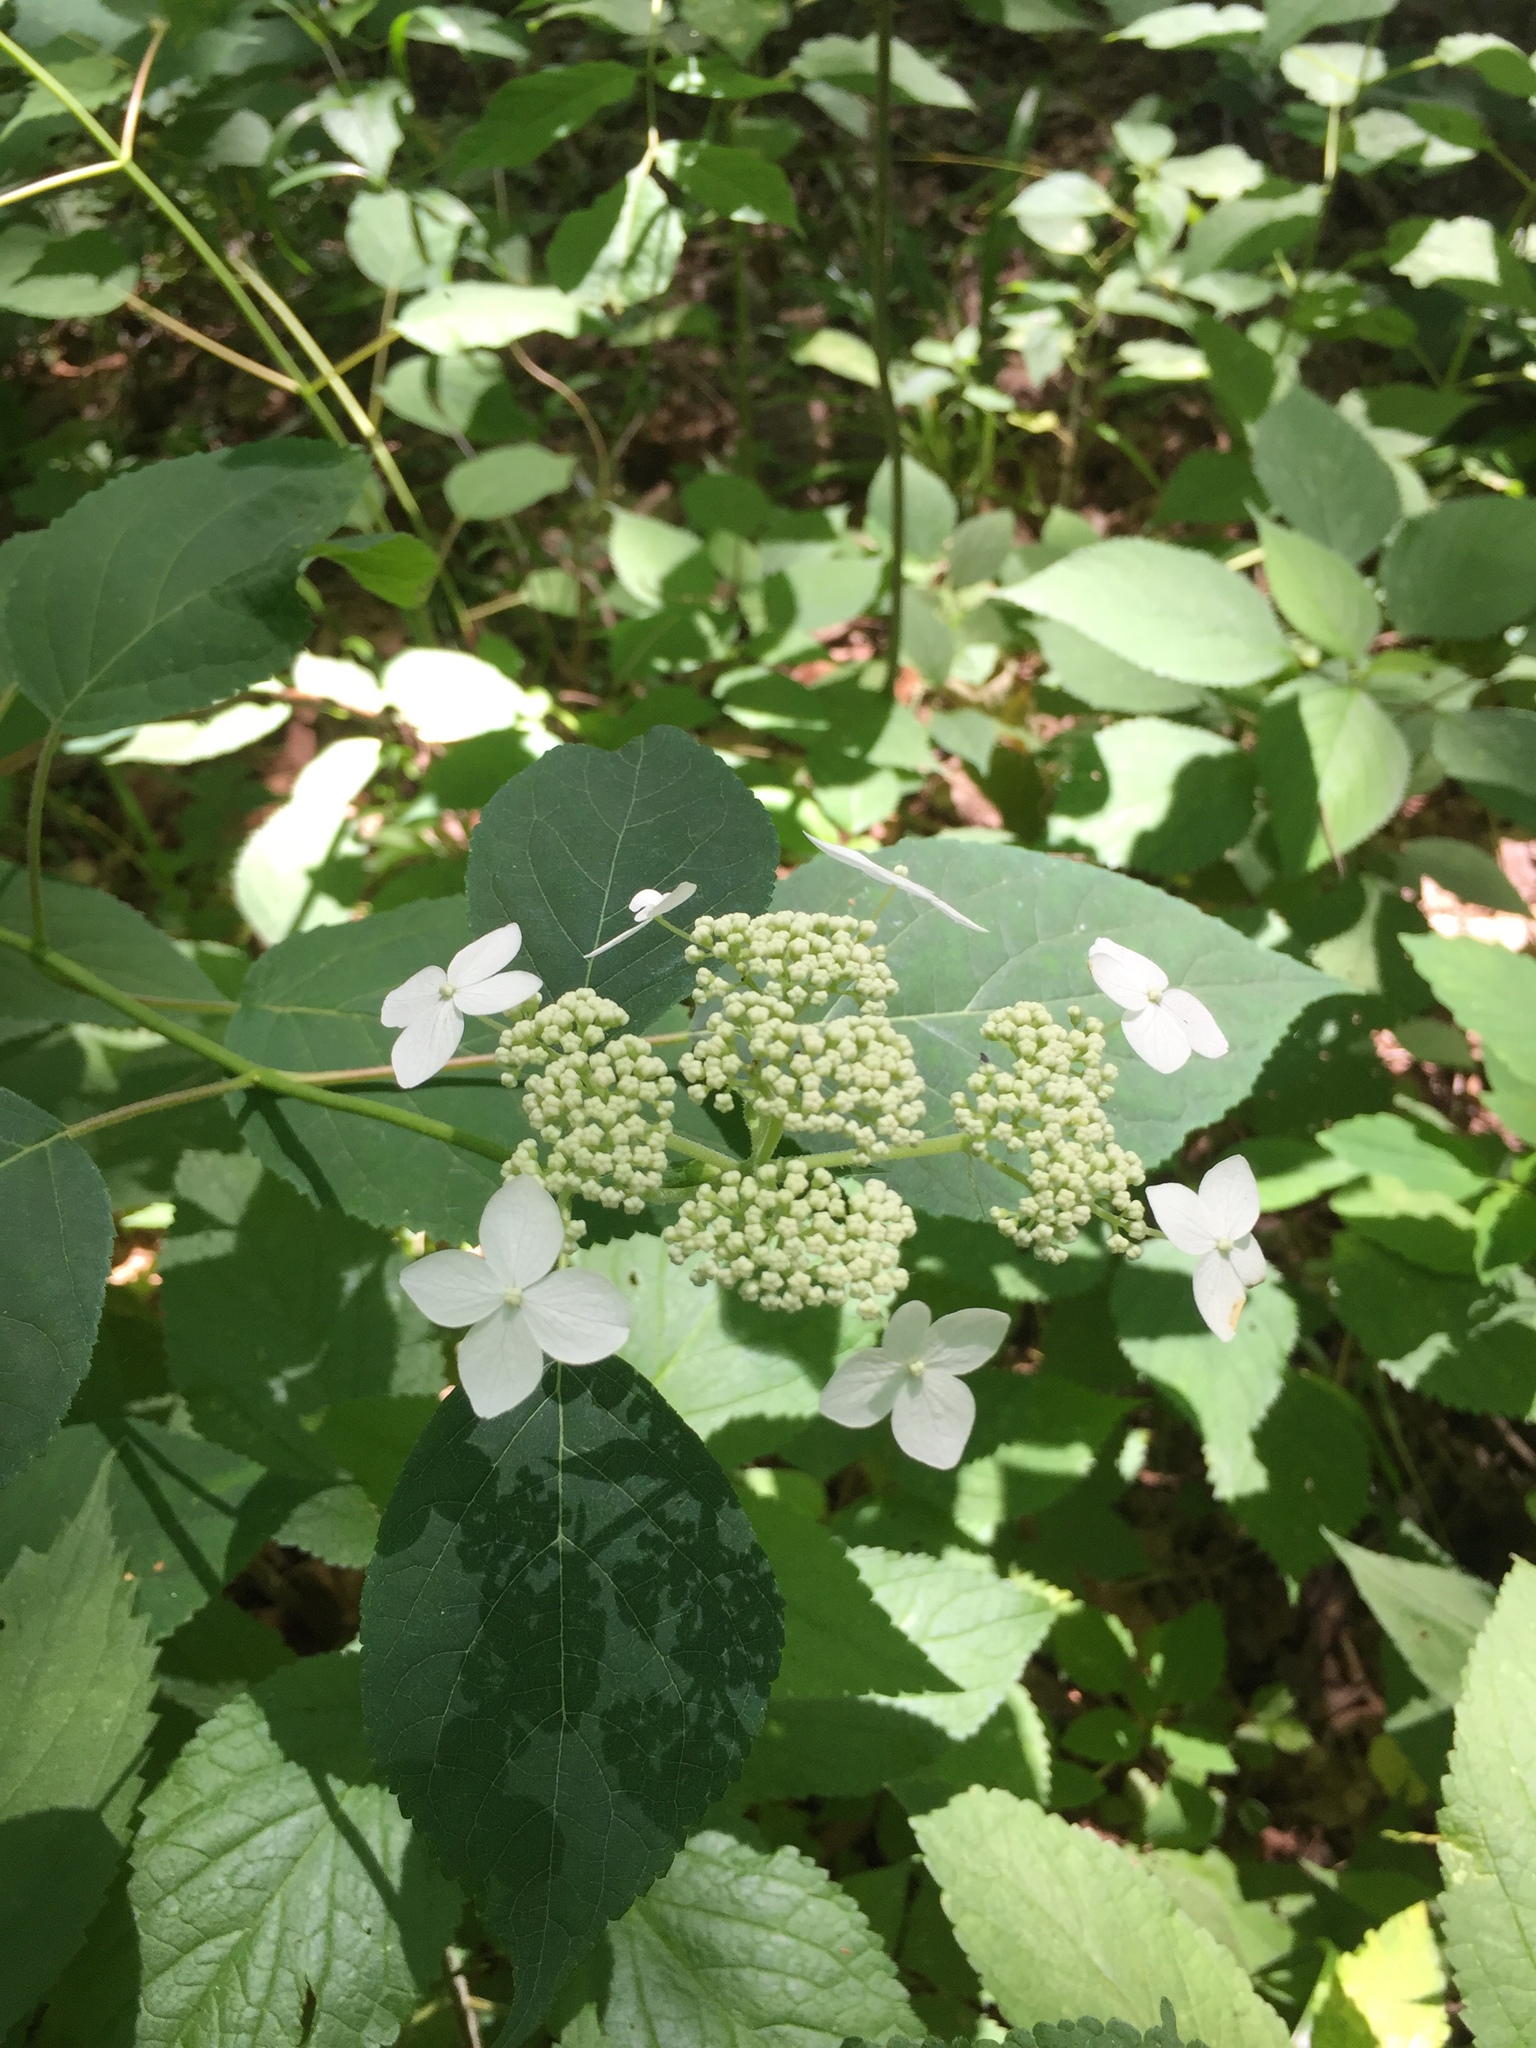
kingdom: Plantae
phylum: Tracheophyta
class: Magnoliopsida
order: Cornales
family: Hydrangeaceae
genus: Hydrangea
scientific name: Hydrangea arborescens
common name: Sevenbark
